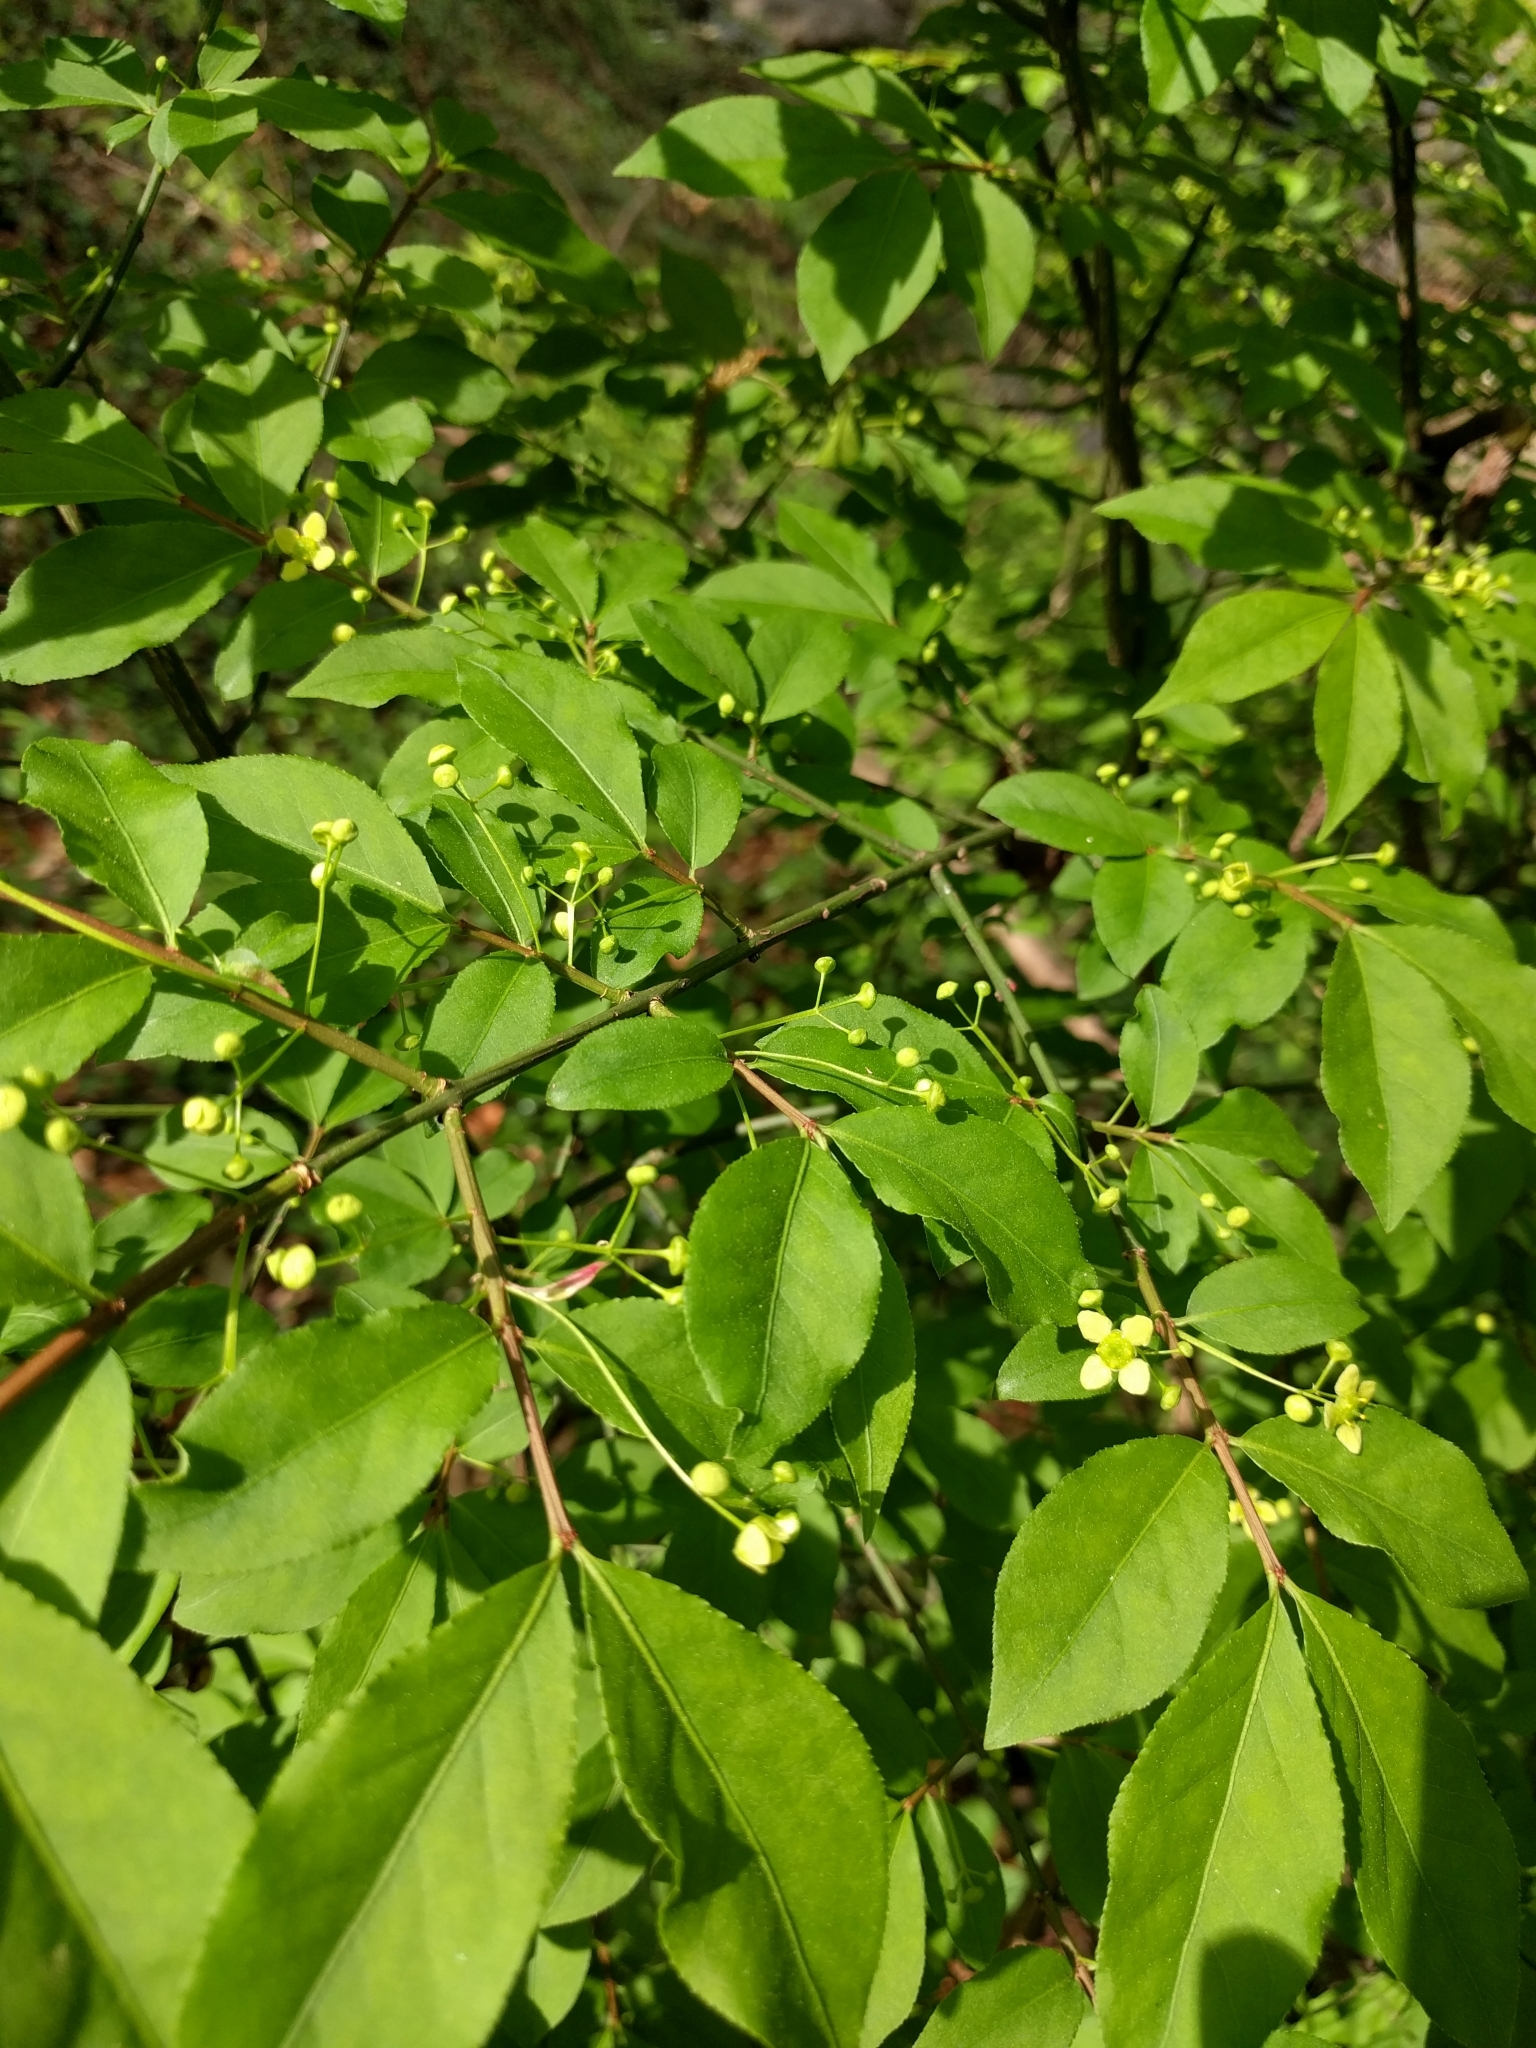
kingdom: Plantae
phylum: Tracheophyta
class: Magnoliopsida
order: Celastrales
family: Celastraceae
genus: Euonymus
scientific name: Euonymus alatus
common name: Winged euonymus
